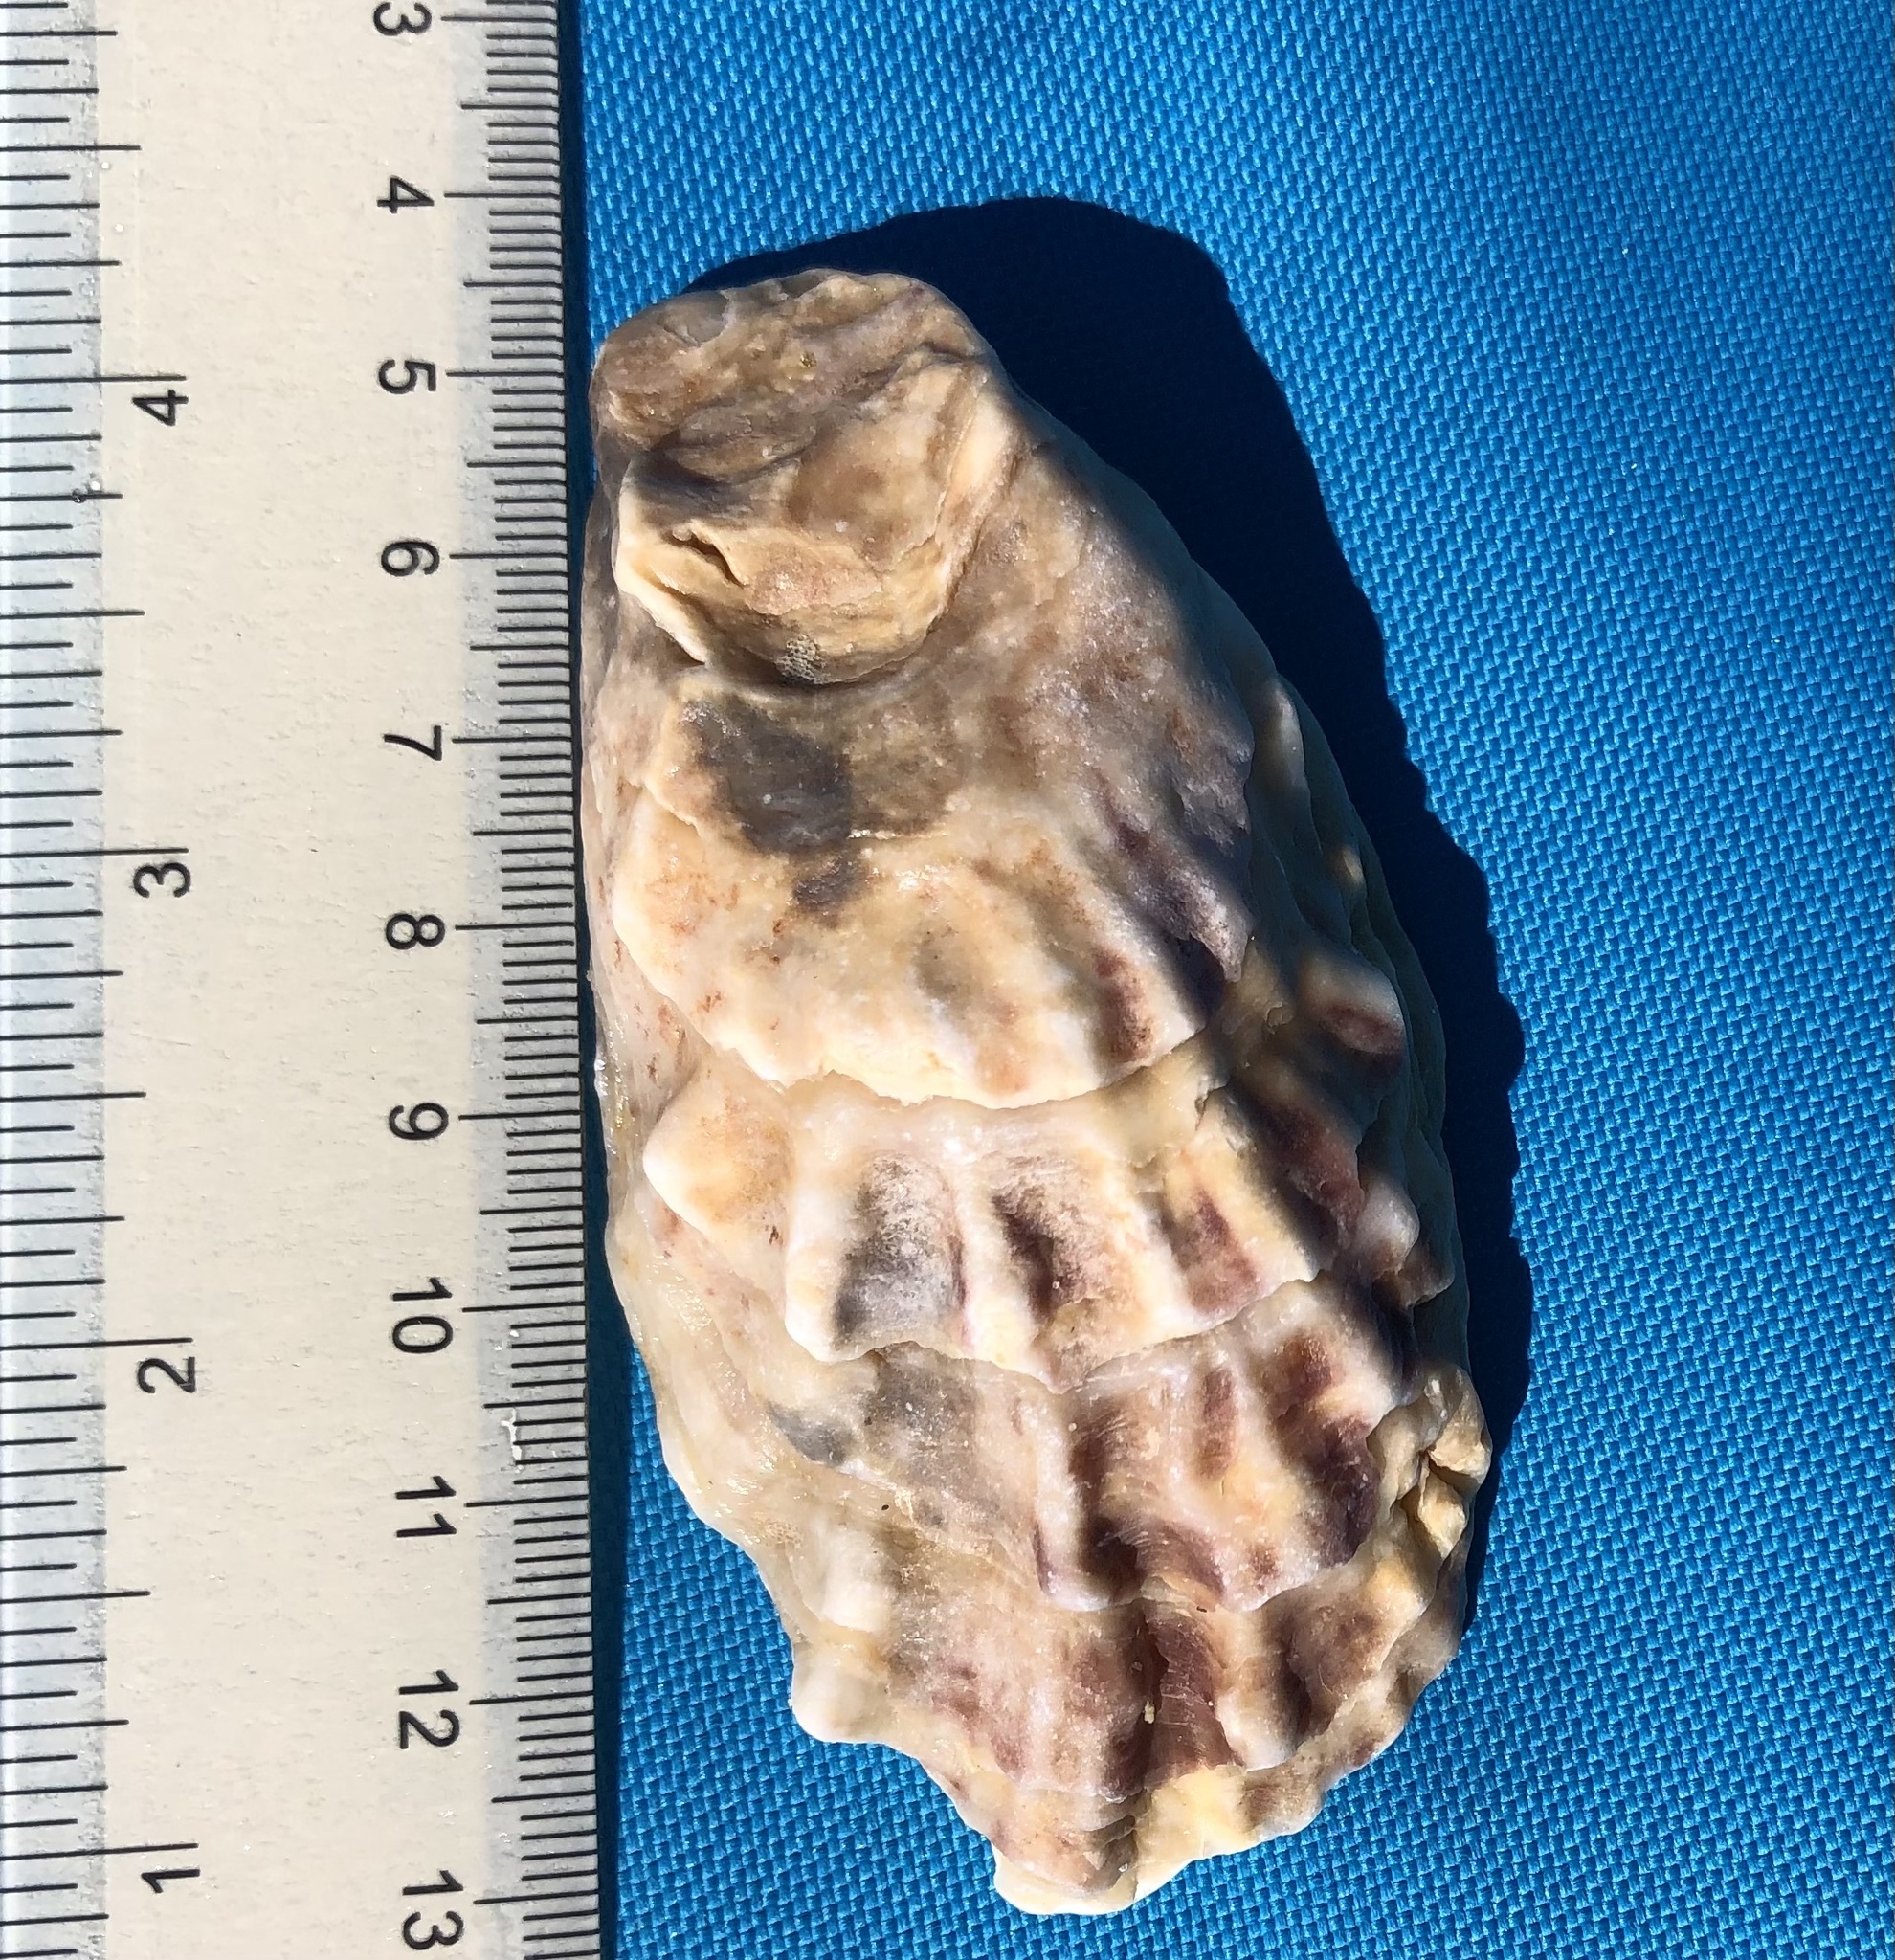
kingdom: Animalia
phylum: Mollusca
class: Bivalvia
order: Ostreida
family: Ostreidae
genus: Crassostrea
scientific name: Crassostrea virginica
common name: American oyster
